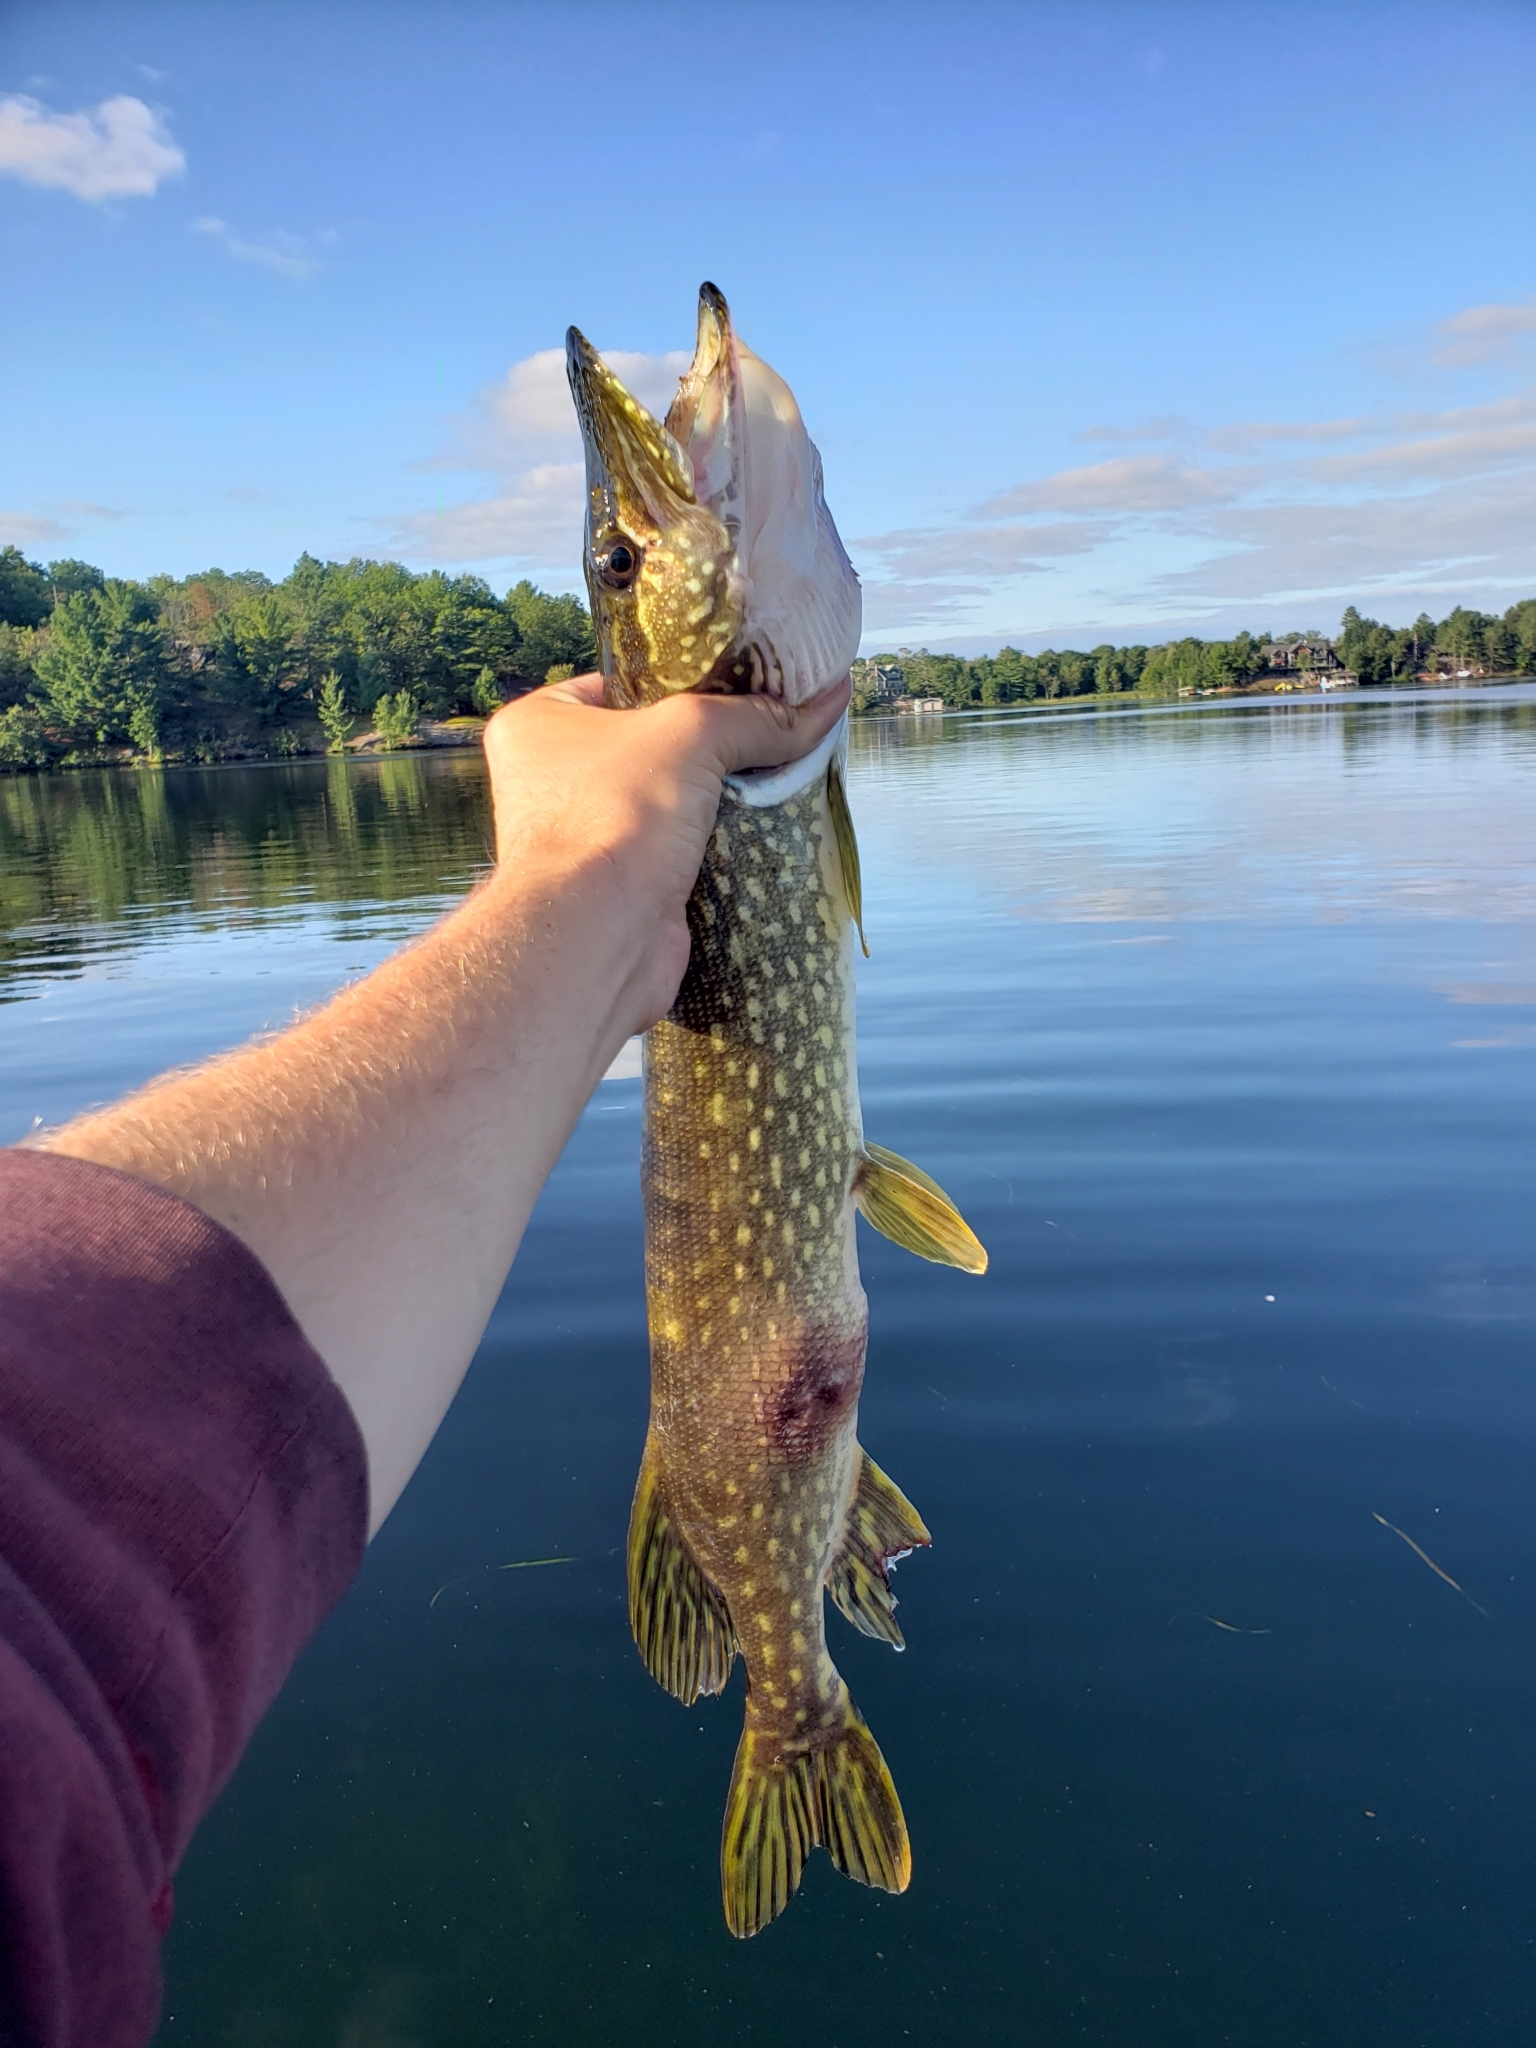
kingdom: Animalia
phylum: Chordata
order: Esociformes
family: Esocidae
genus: Esox
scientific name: Esox lucius
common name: Northern pike
